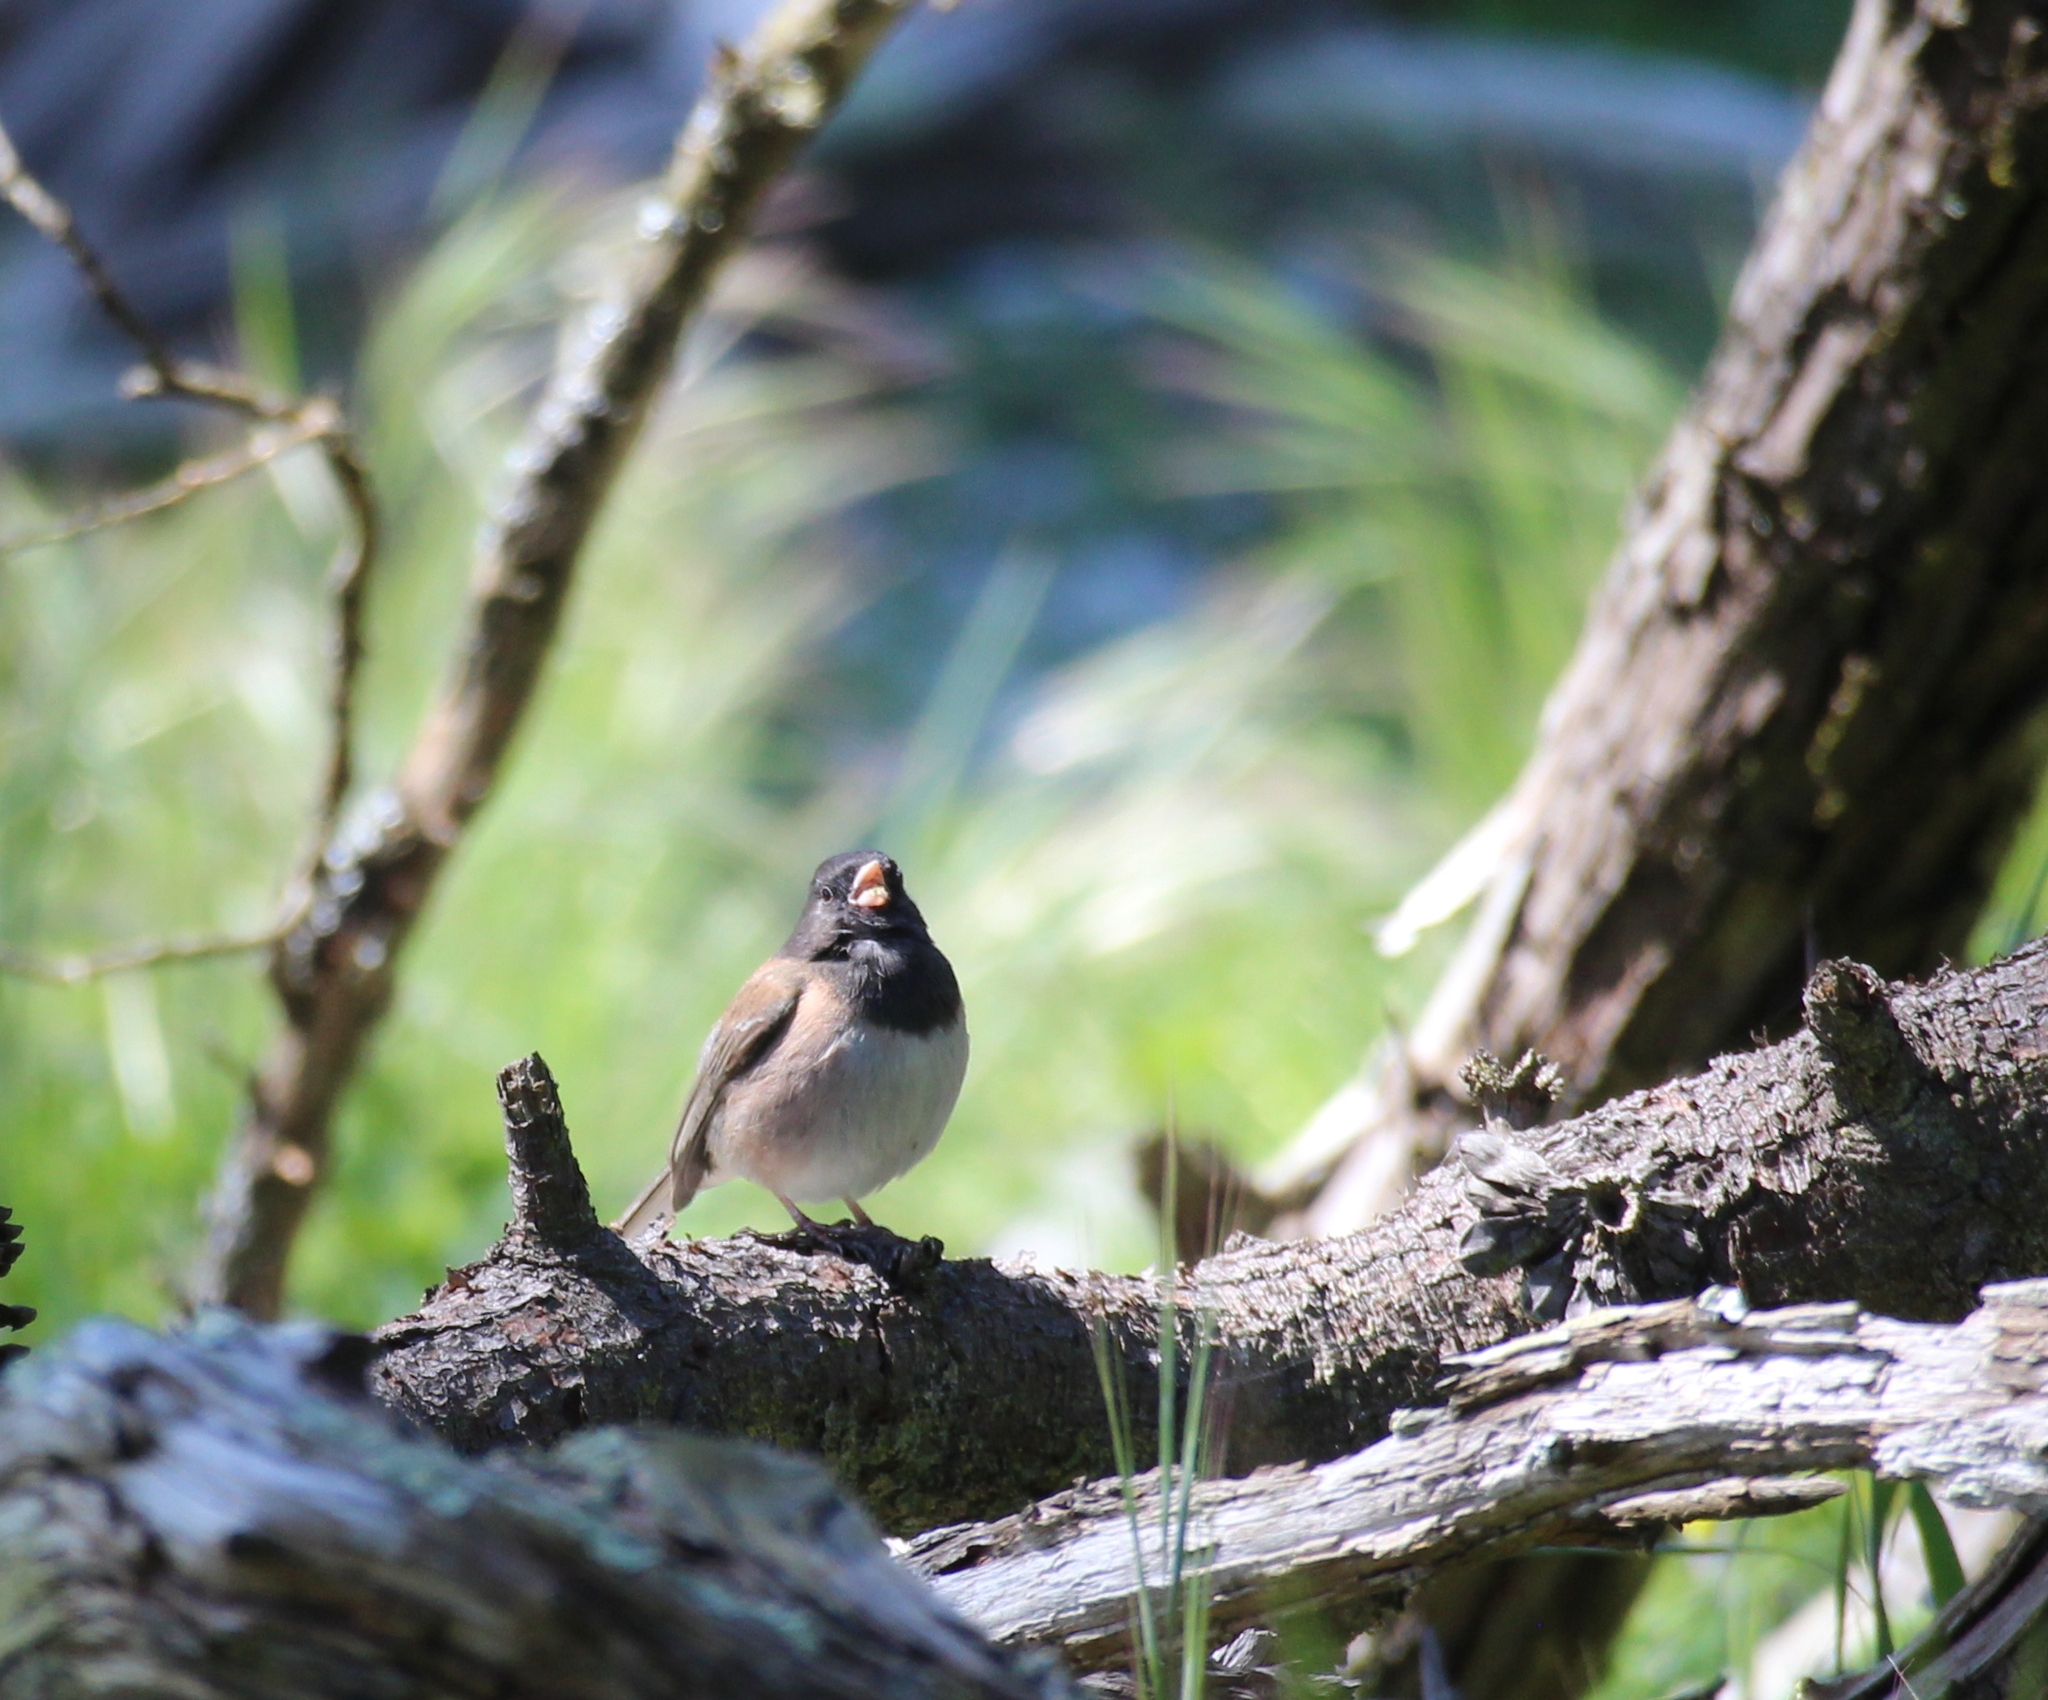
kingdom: Animalia
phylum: Chordata
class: Aves
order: Passeriformes
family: Passerellidae
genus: Junco
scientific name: Junco hyemalis
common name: Dark-eyed junco
